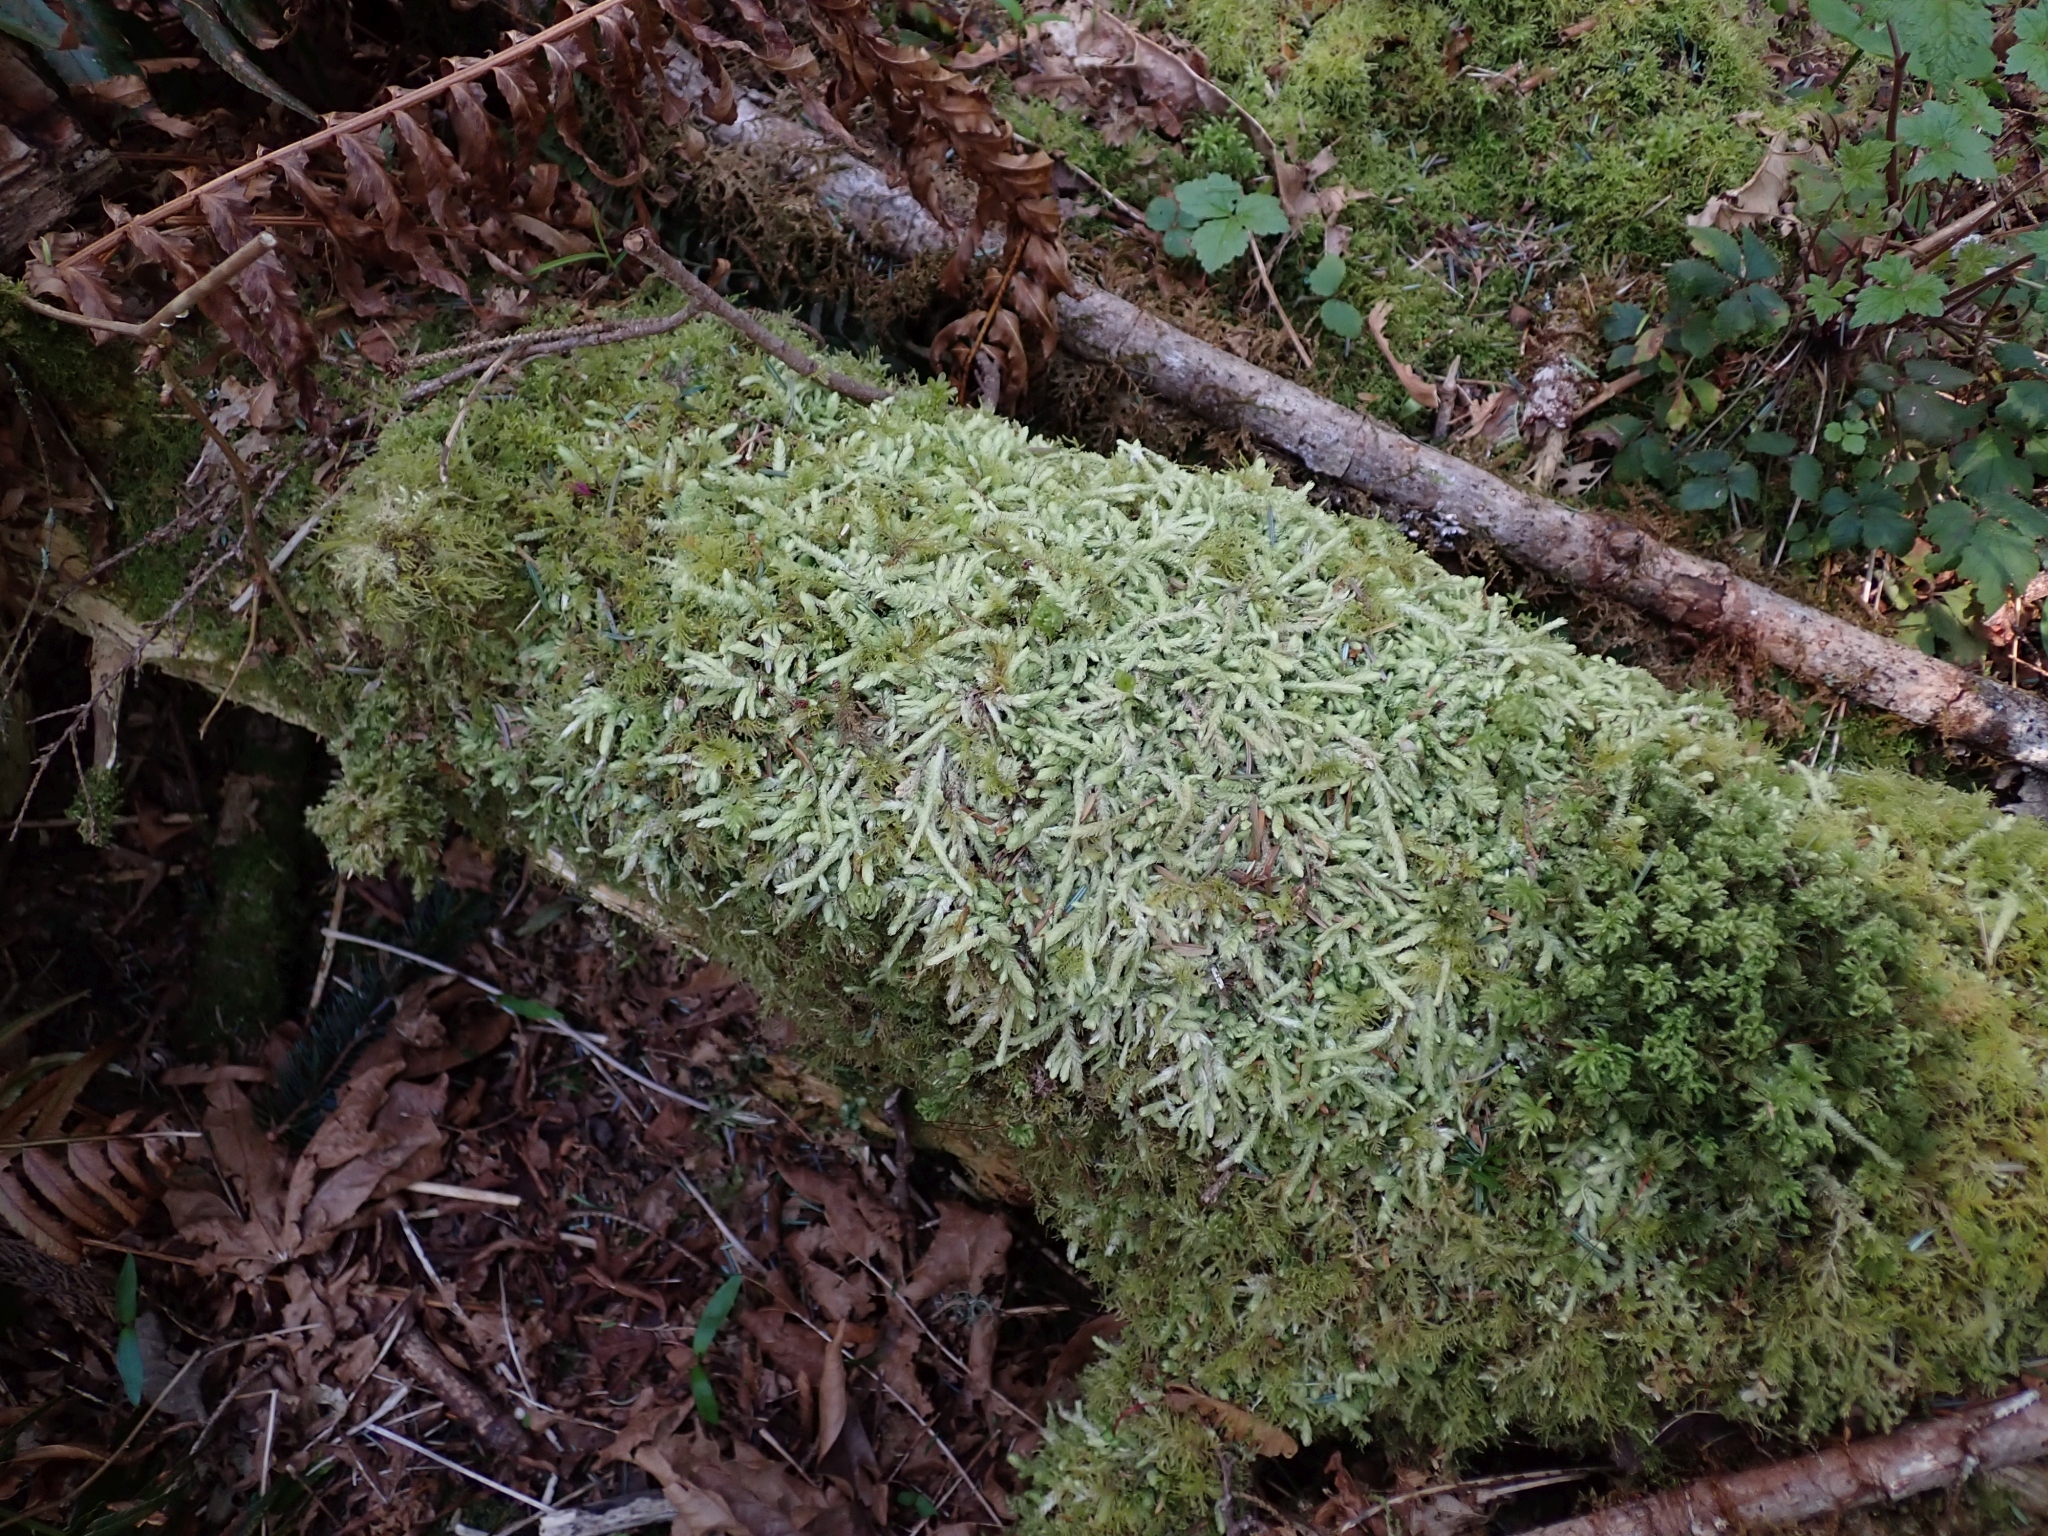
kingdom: Plantae
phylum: Bryophyta
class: Bryopsida
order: Hypnales
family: Plagiotheciaceae
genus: Plagiothecium
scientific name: Plagiothecium undulatum
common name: Waved silk-moss
